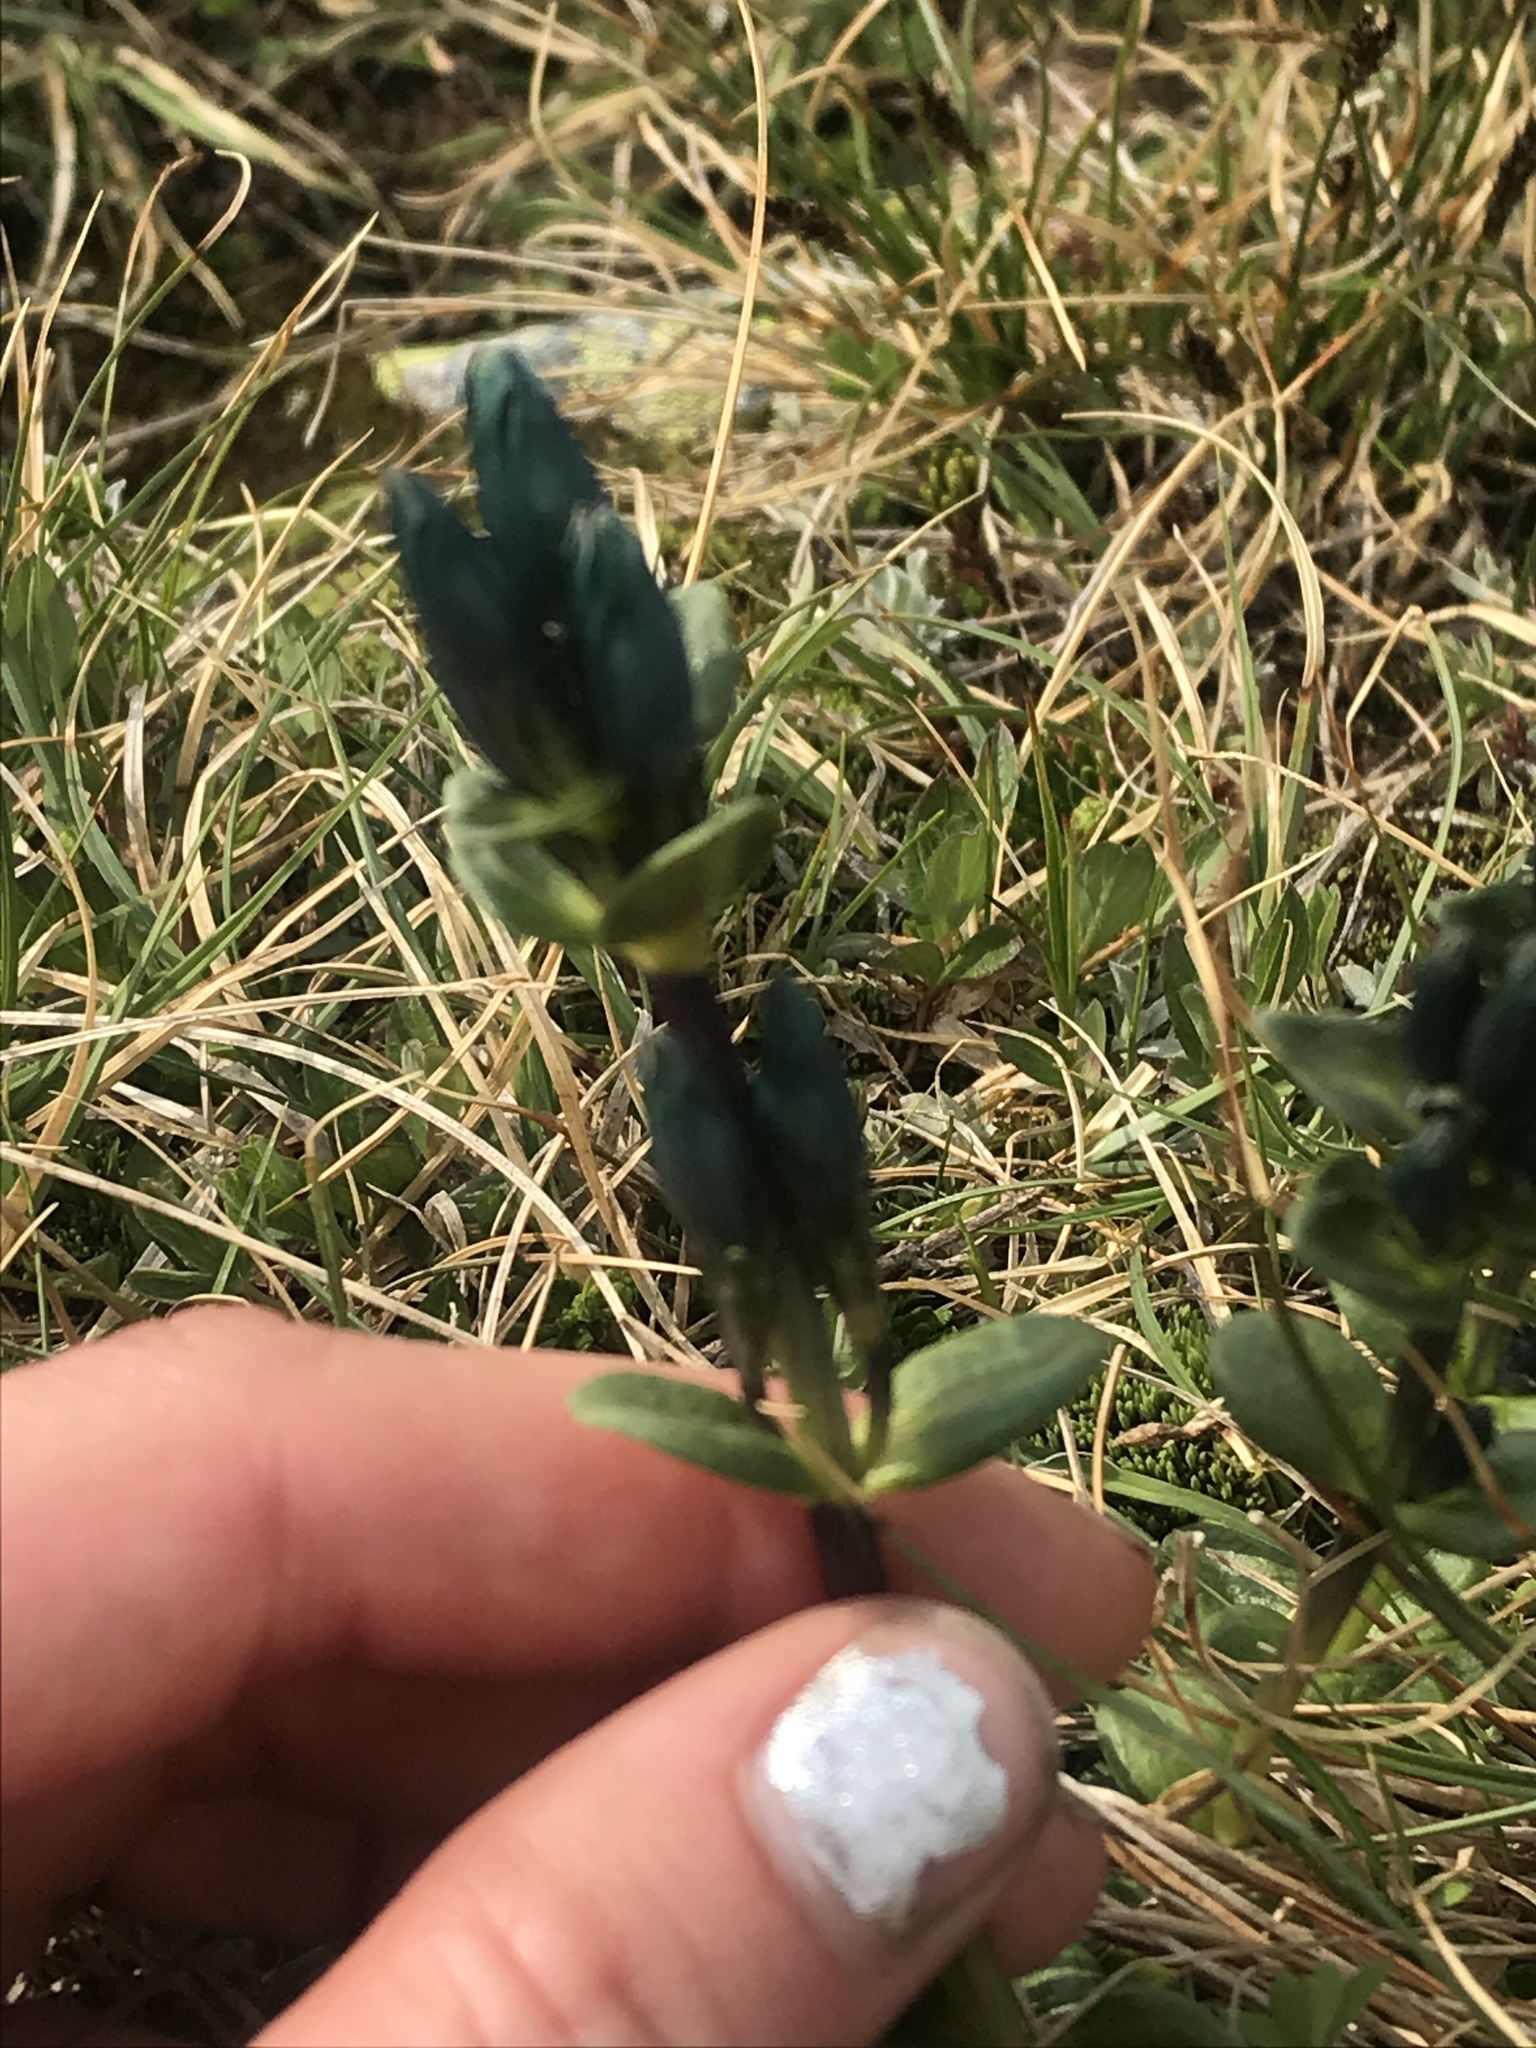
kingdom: Plantae
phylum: Tracheophyta
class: Magnoliopsida
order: Gentianales
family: Gentianaceae
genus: Gentiana
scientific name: Gentiana glauca
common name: Alpine gentian
